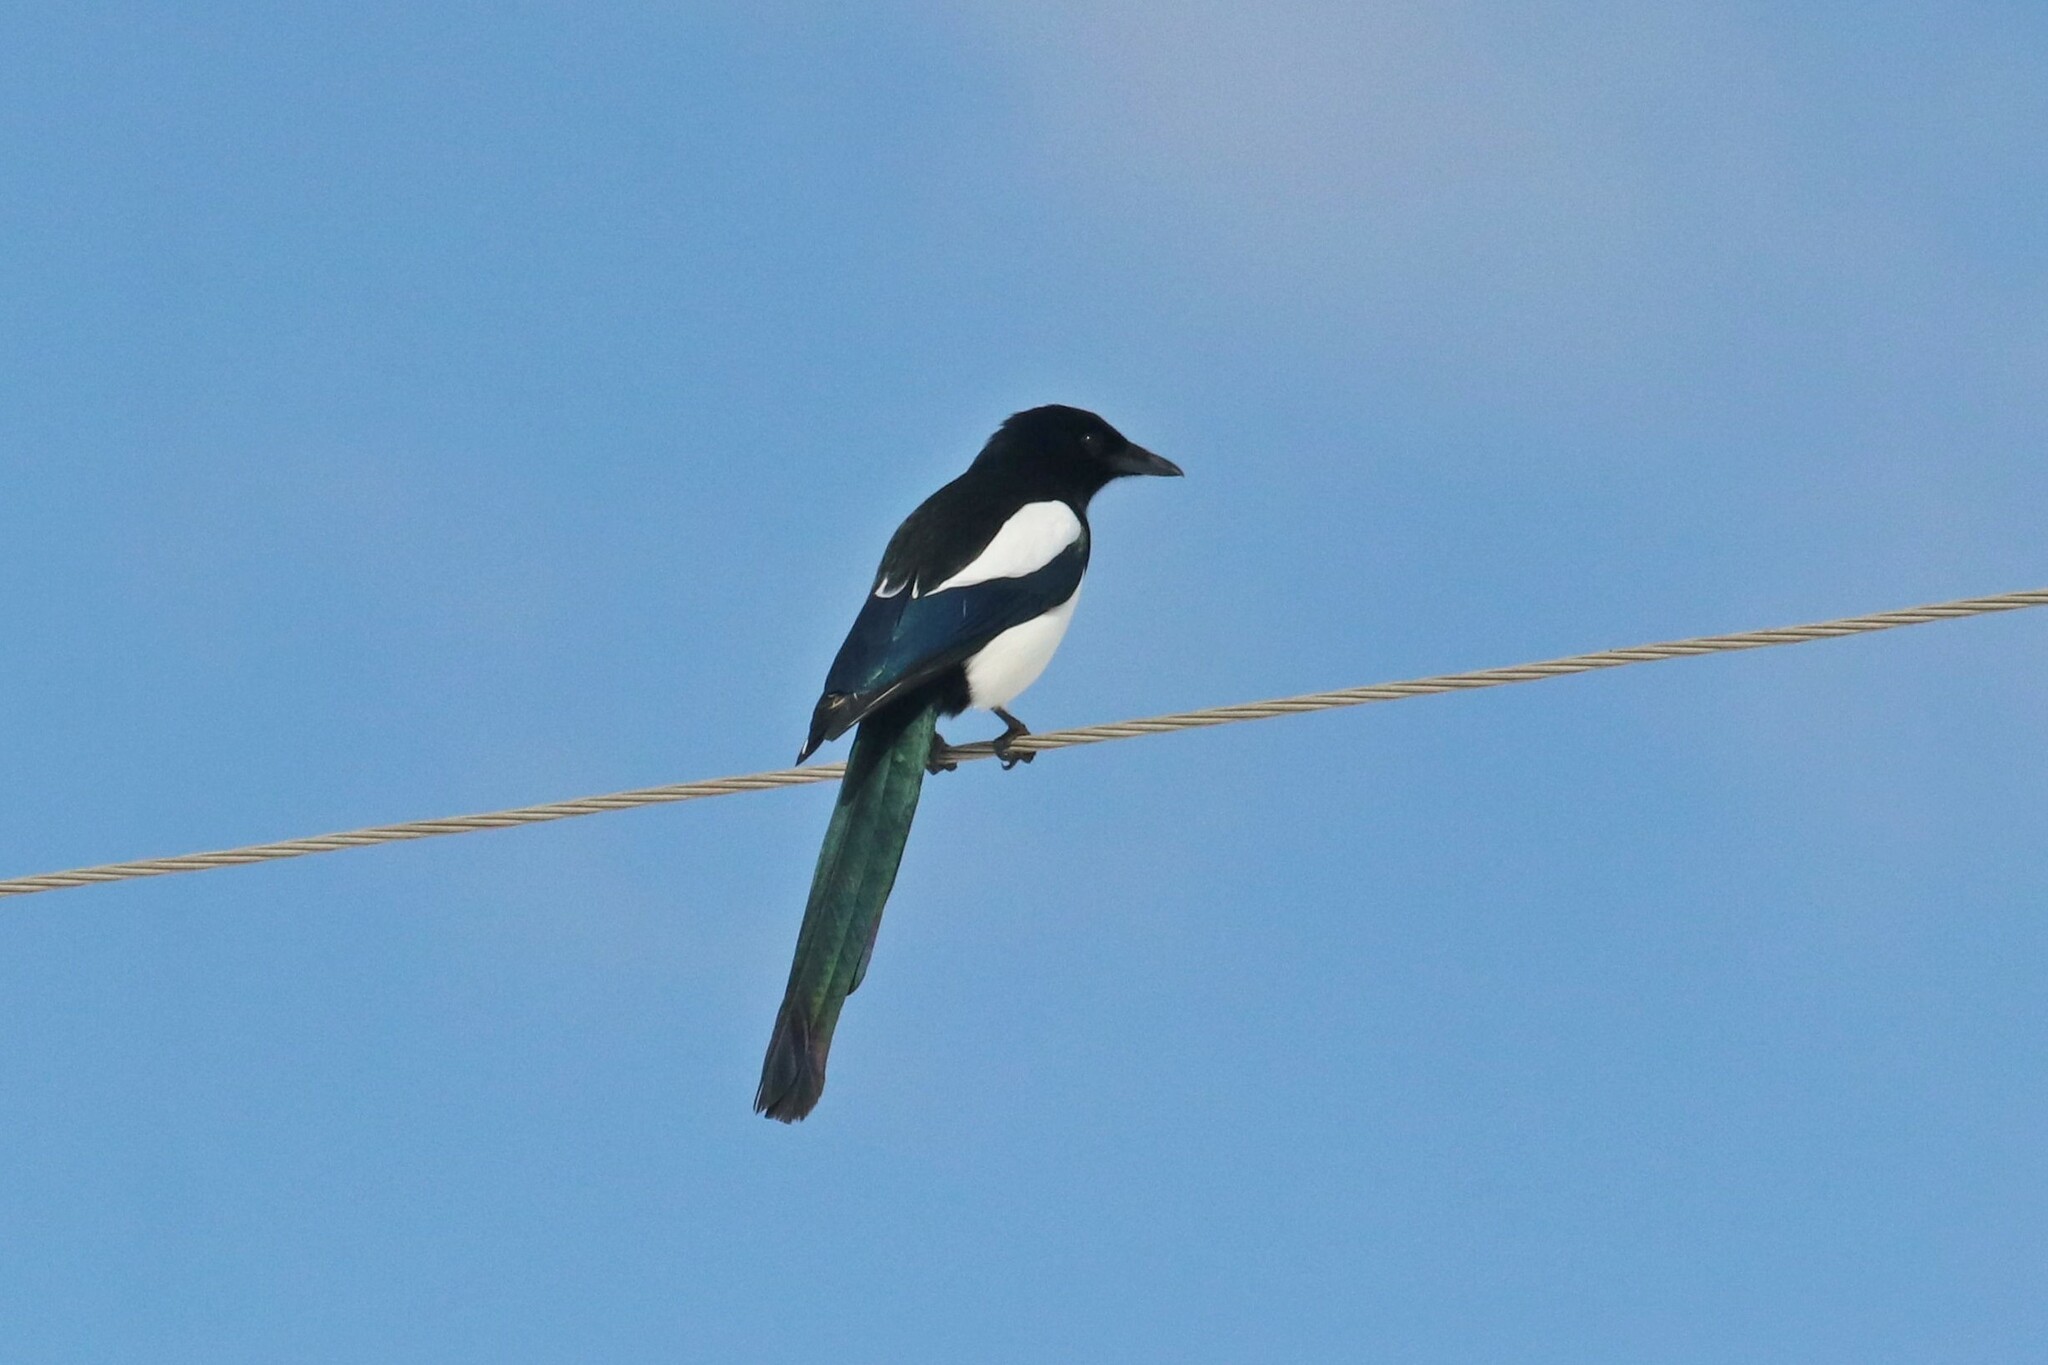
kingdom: Animalia
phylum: Chordata
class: Aves
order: Passeriformes
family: Corvidae
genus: Pica
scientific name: Pica pica
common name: Eurasian magpie
